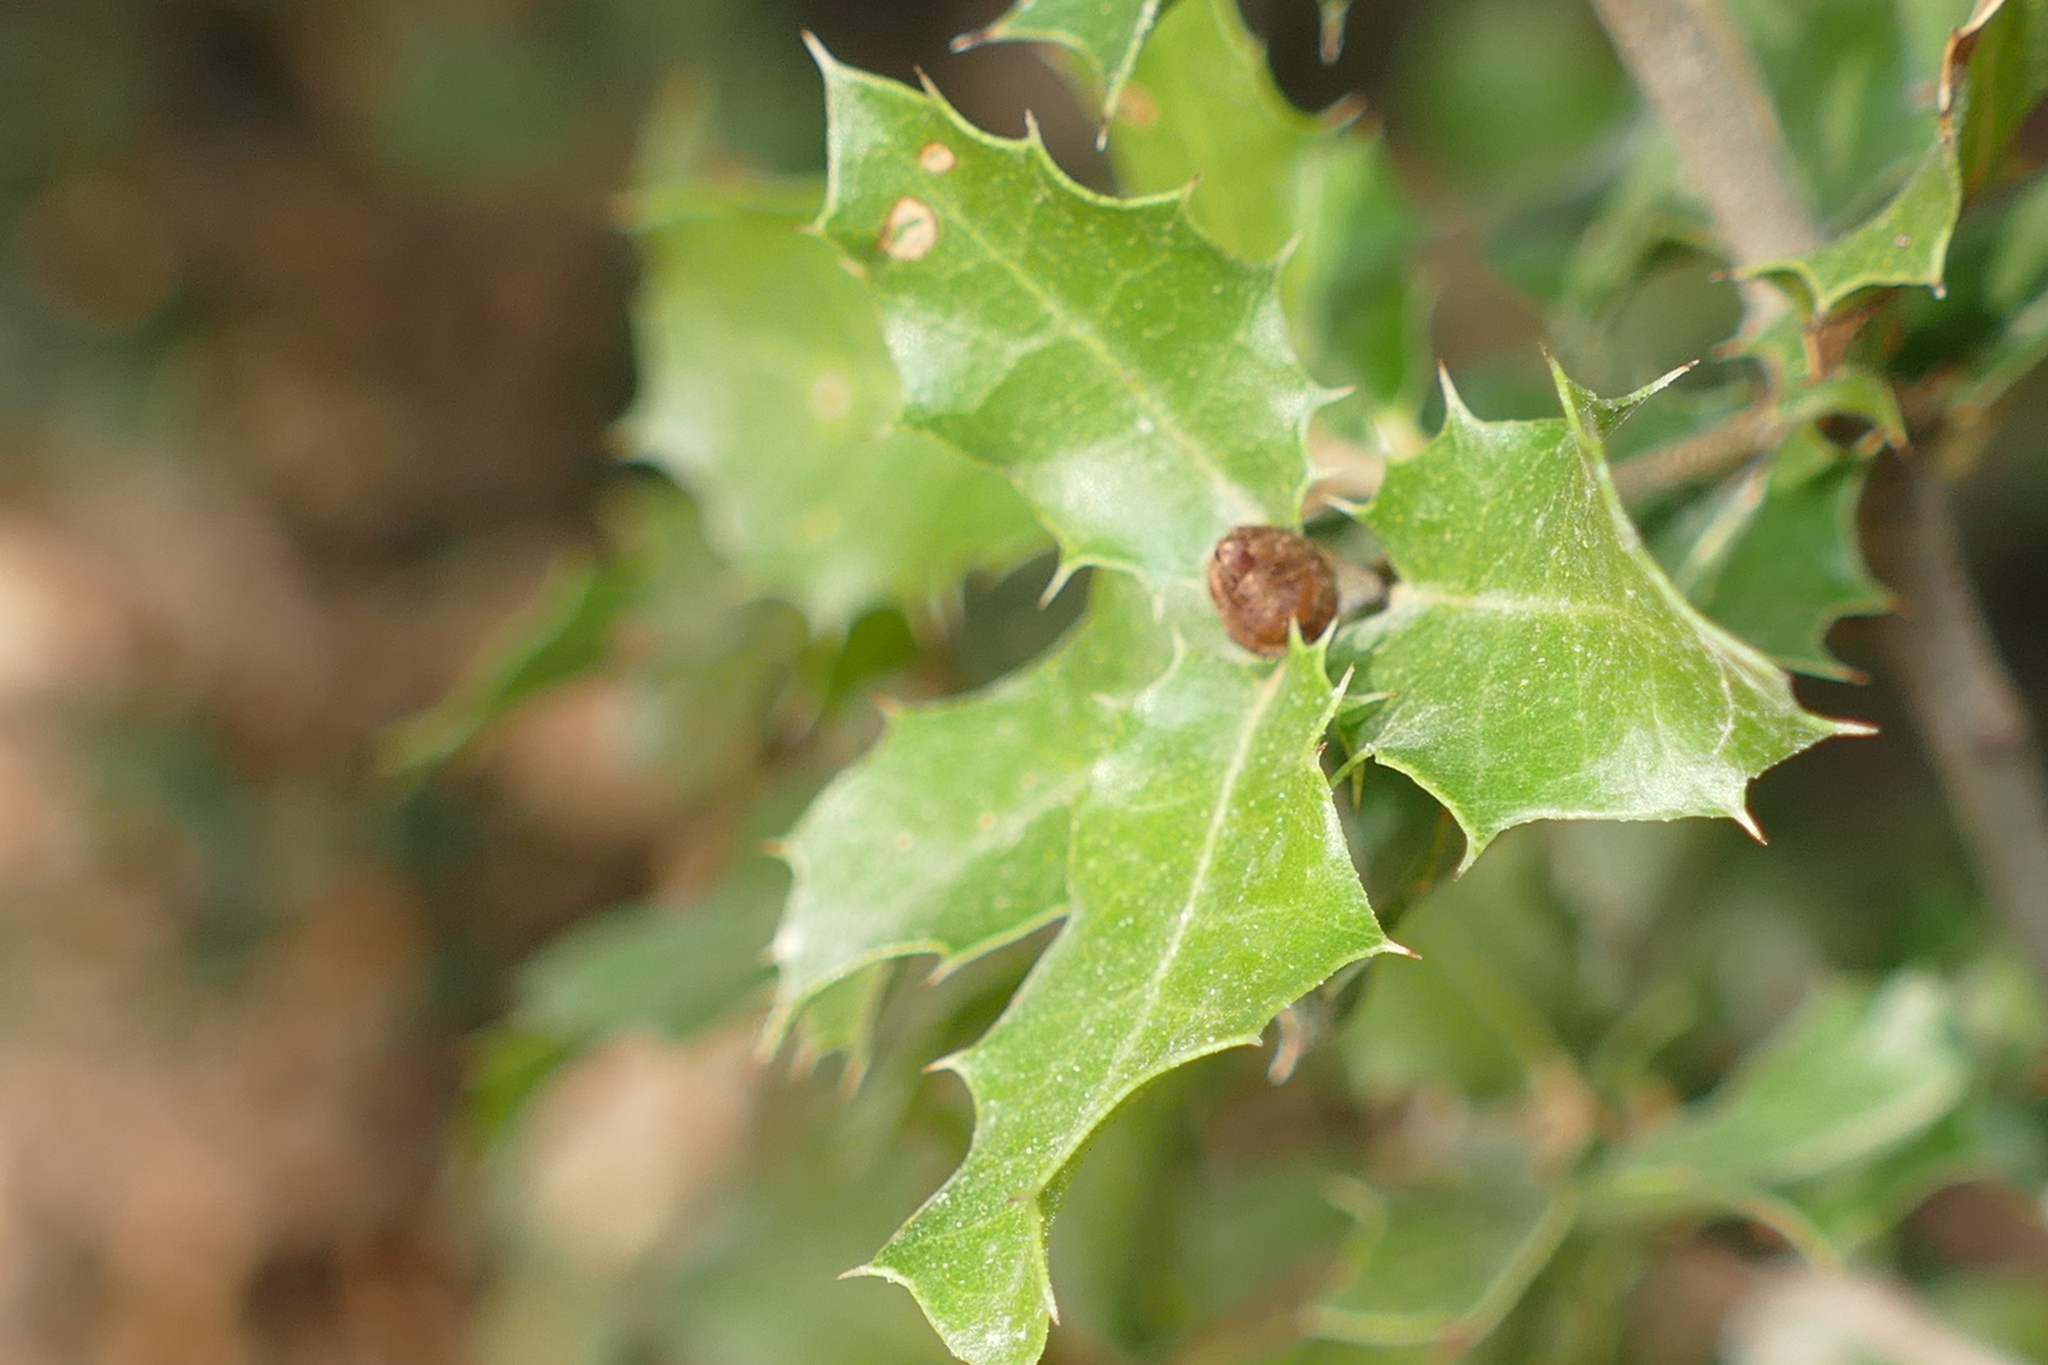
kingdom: Plantae
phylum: Tracheophyta
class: Magnoliopsida
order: Fagales
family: Fagaceae
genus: Quercus
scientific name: Quercus coccifera
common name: Kermes oak
